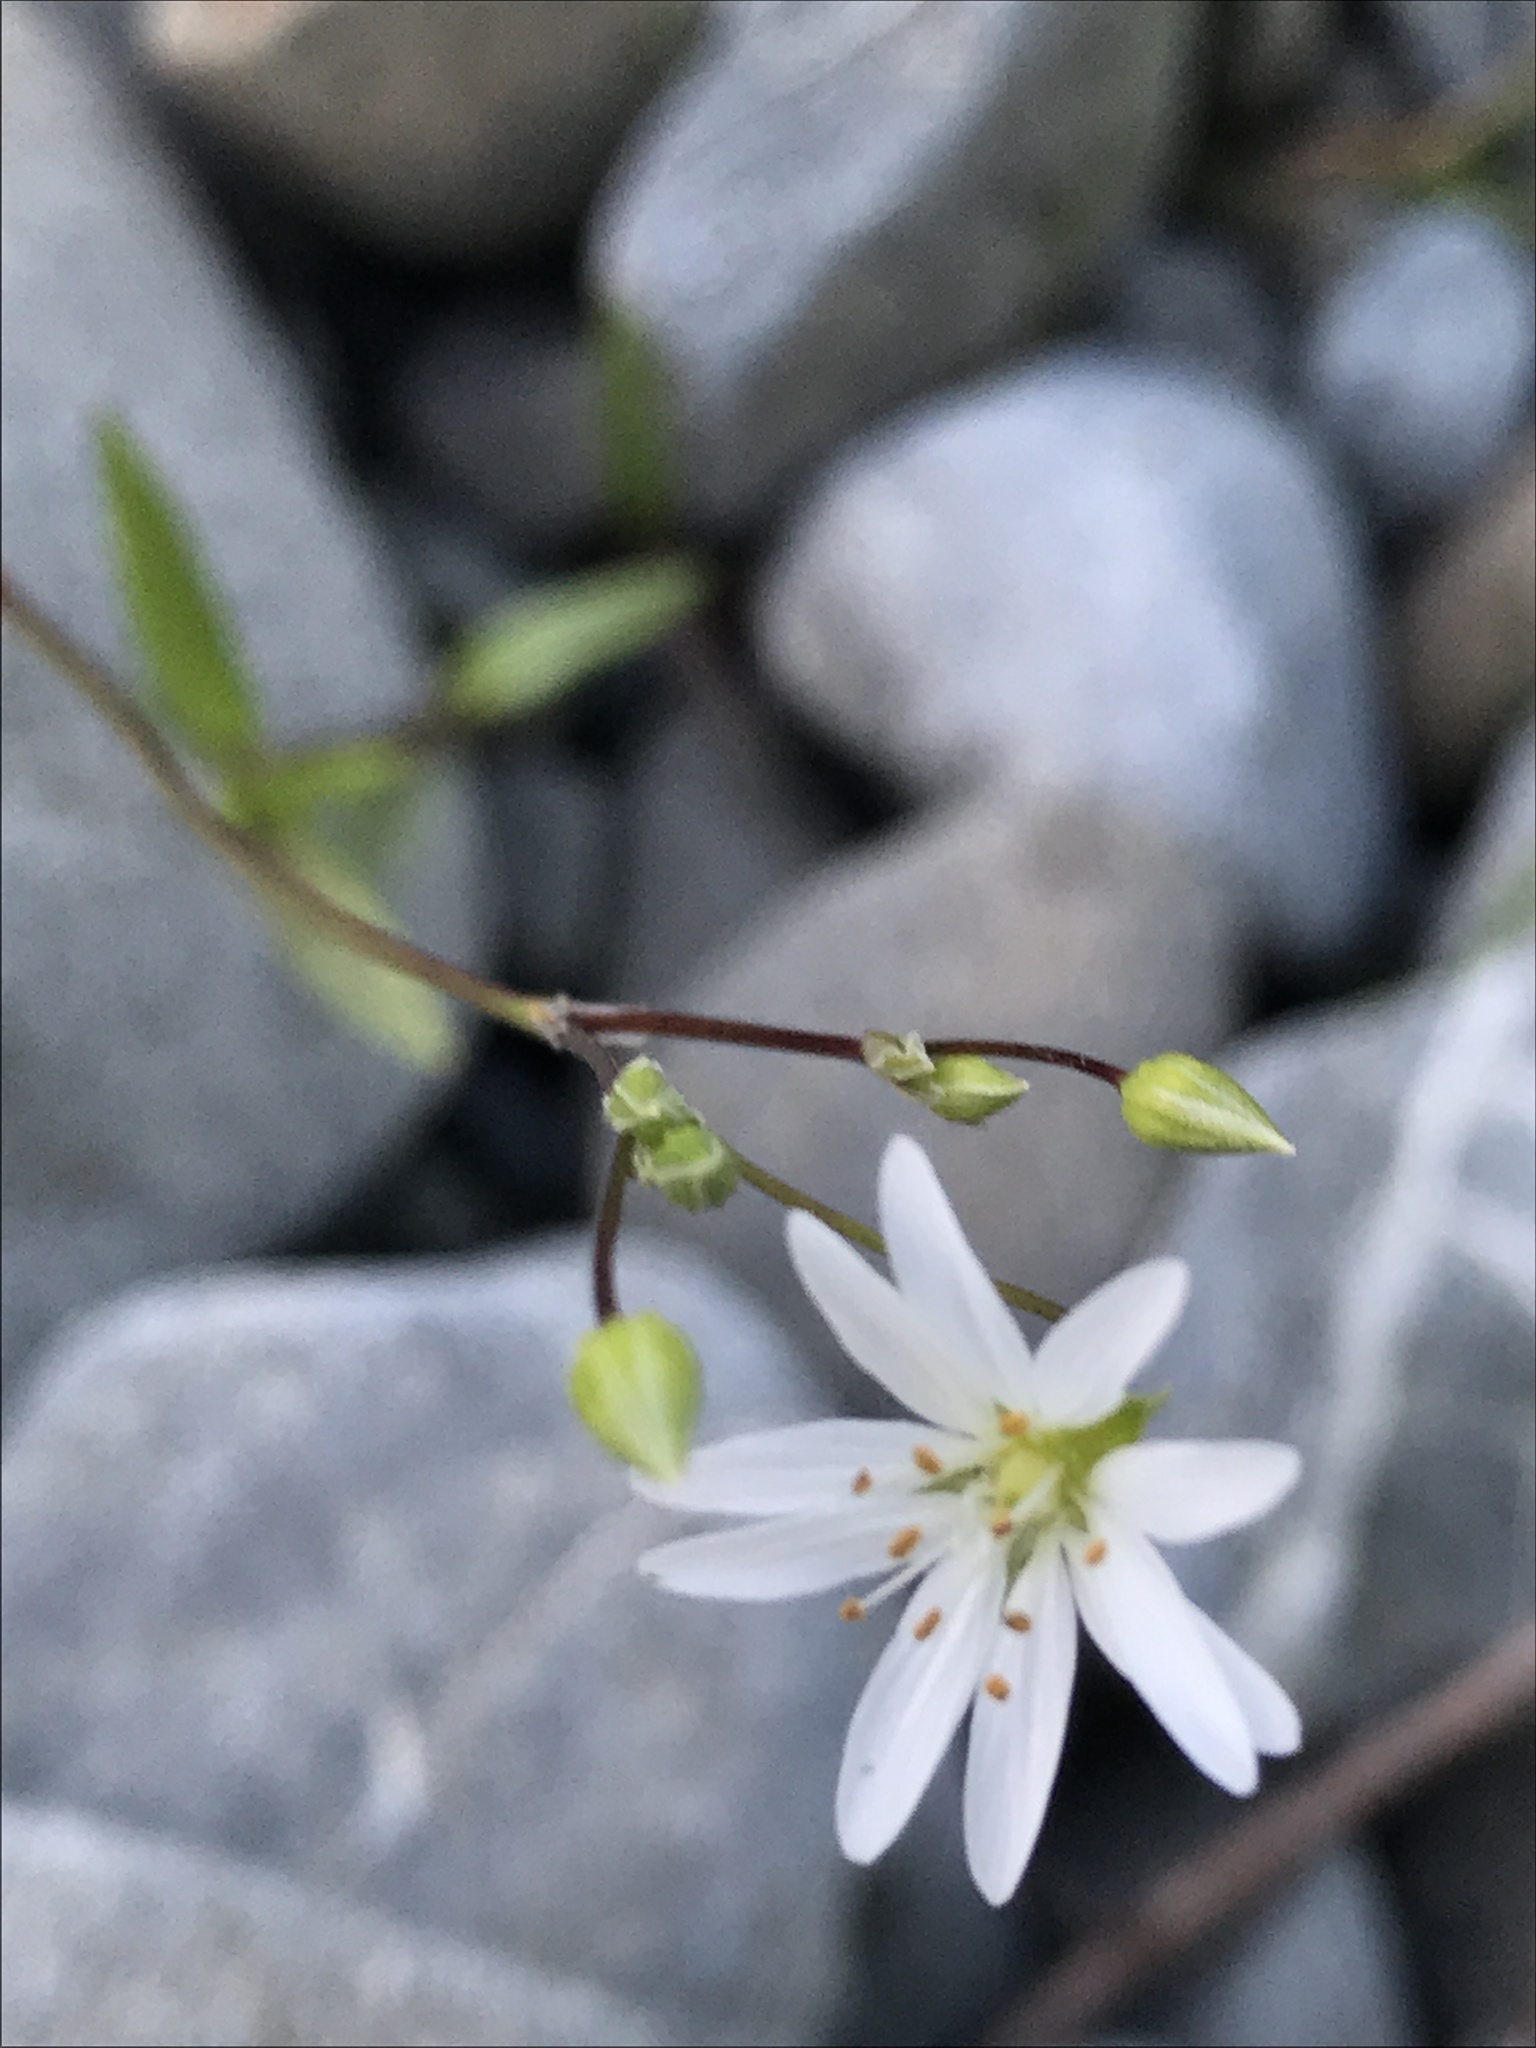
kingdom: Plantae
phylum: Tracheophyta
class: Magnoliopsida
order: Caryophyllales
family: Caryophyllaceae
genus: Stellaria
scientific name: Stellaria graminea
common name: Grass-like starwort
